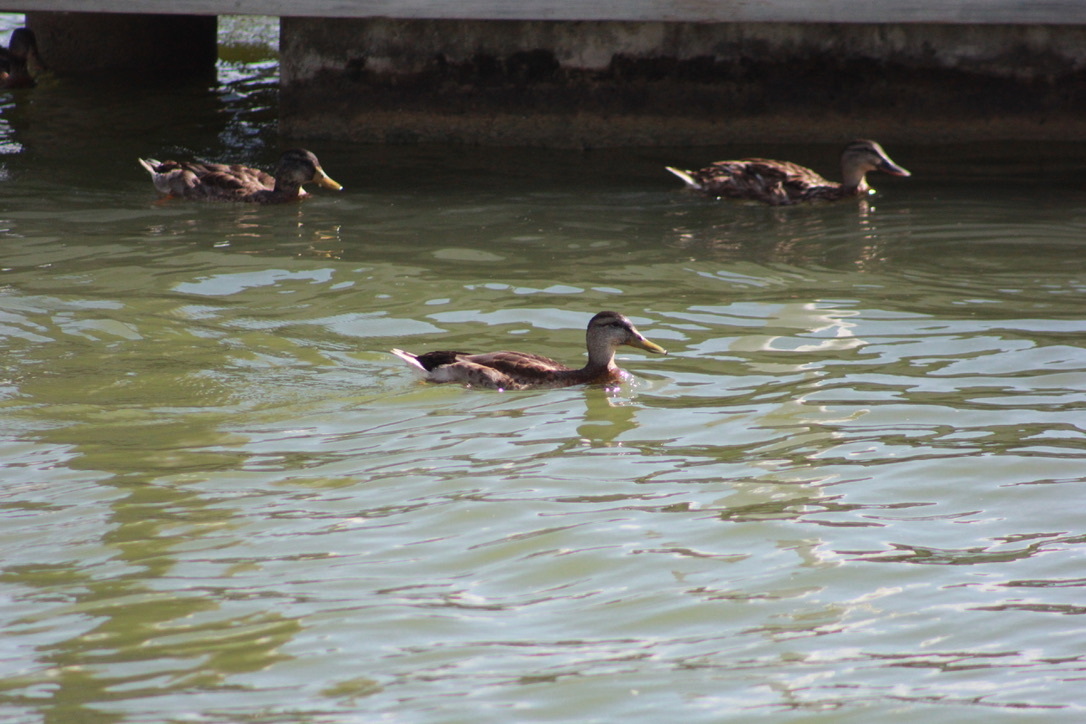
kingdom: Animalia
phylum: Chordata
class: Aves
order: Anseriformes
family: Anatidae
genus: Anas
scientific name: Anas platyrhynchos
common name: Mallard
